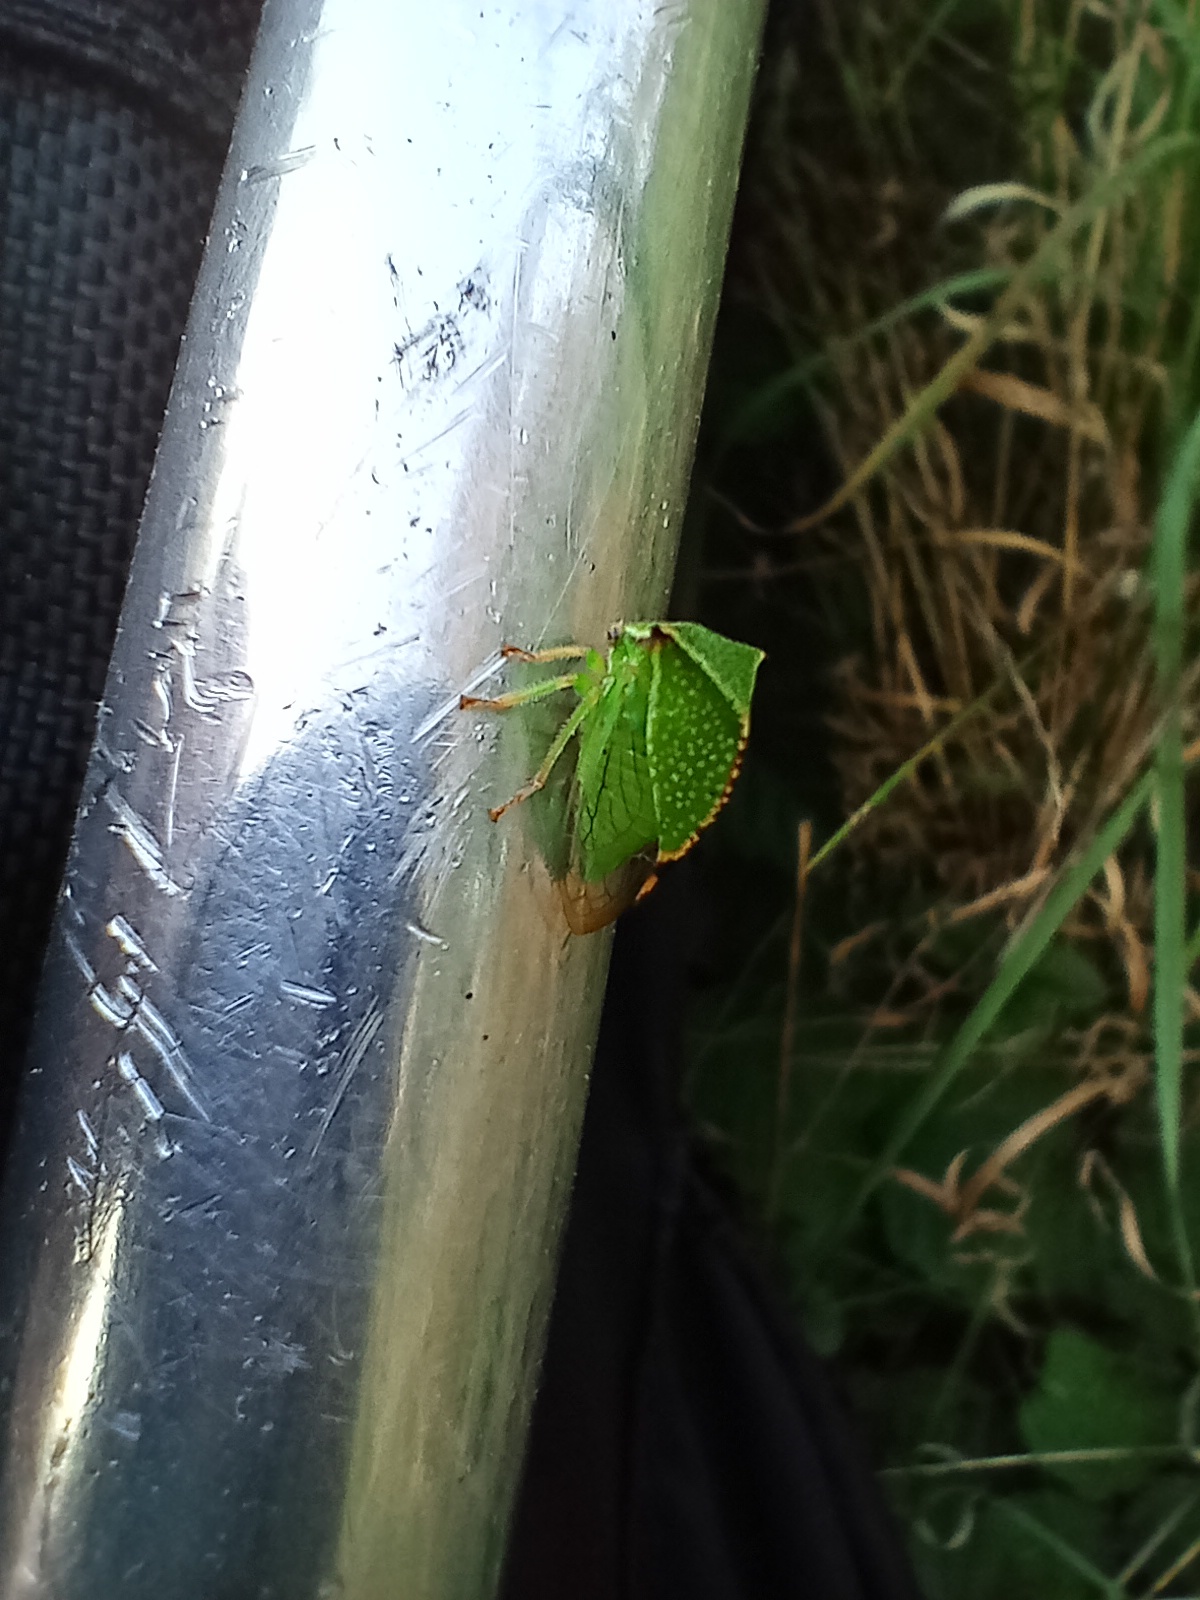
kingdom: Animalia
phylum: Arthropoda
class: Insecta
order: Hemiptera
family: Membracidae
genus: Stictocephala
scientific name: Stictocephala bisonia
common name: American buffalo treehopper
